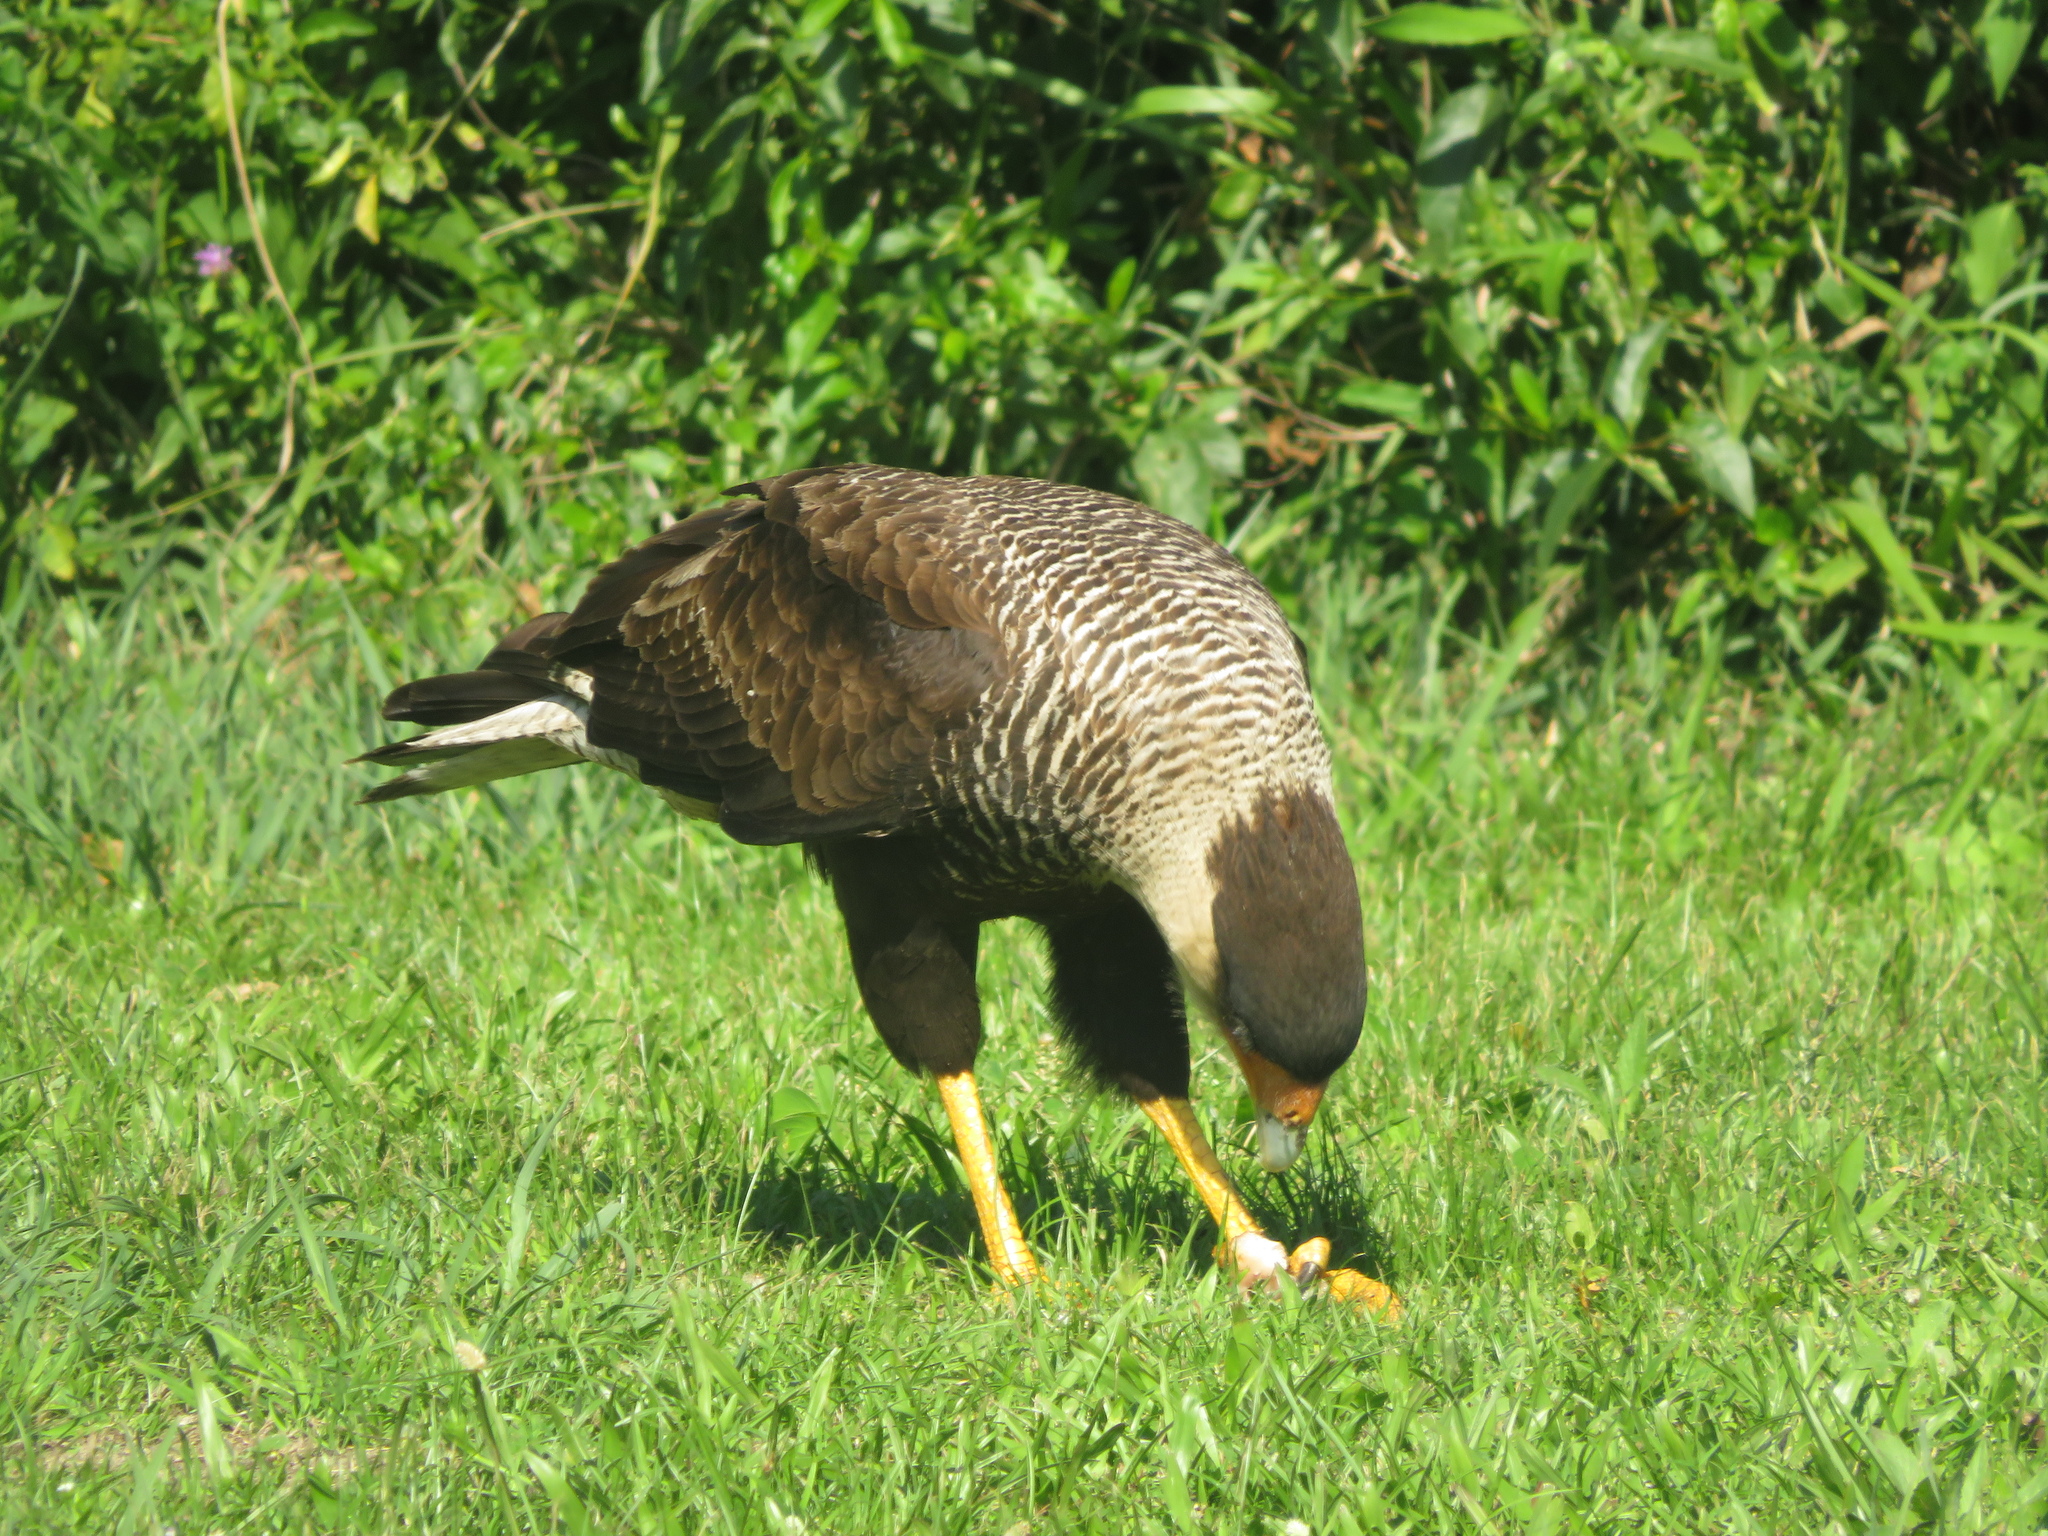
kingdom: Animalia
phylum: Chordata
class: Aves
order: Falconiformes
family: Falconidae
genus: Caracara
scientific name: Caracara plancus
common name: Southern caracara
